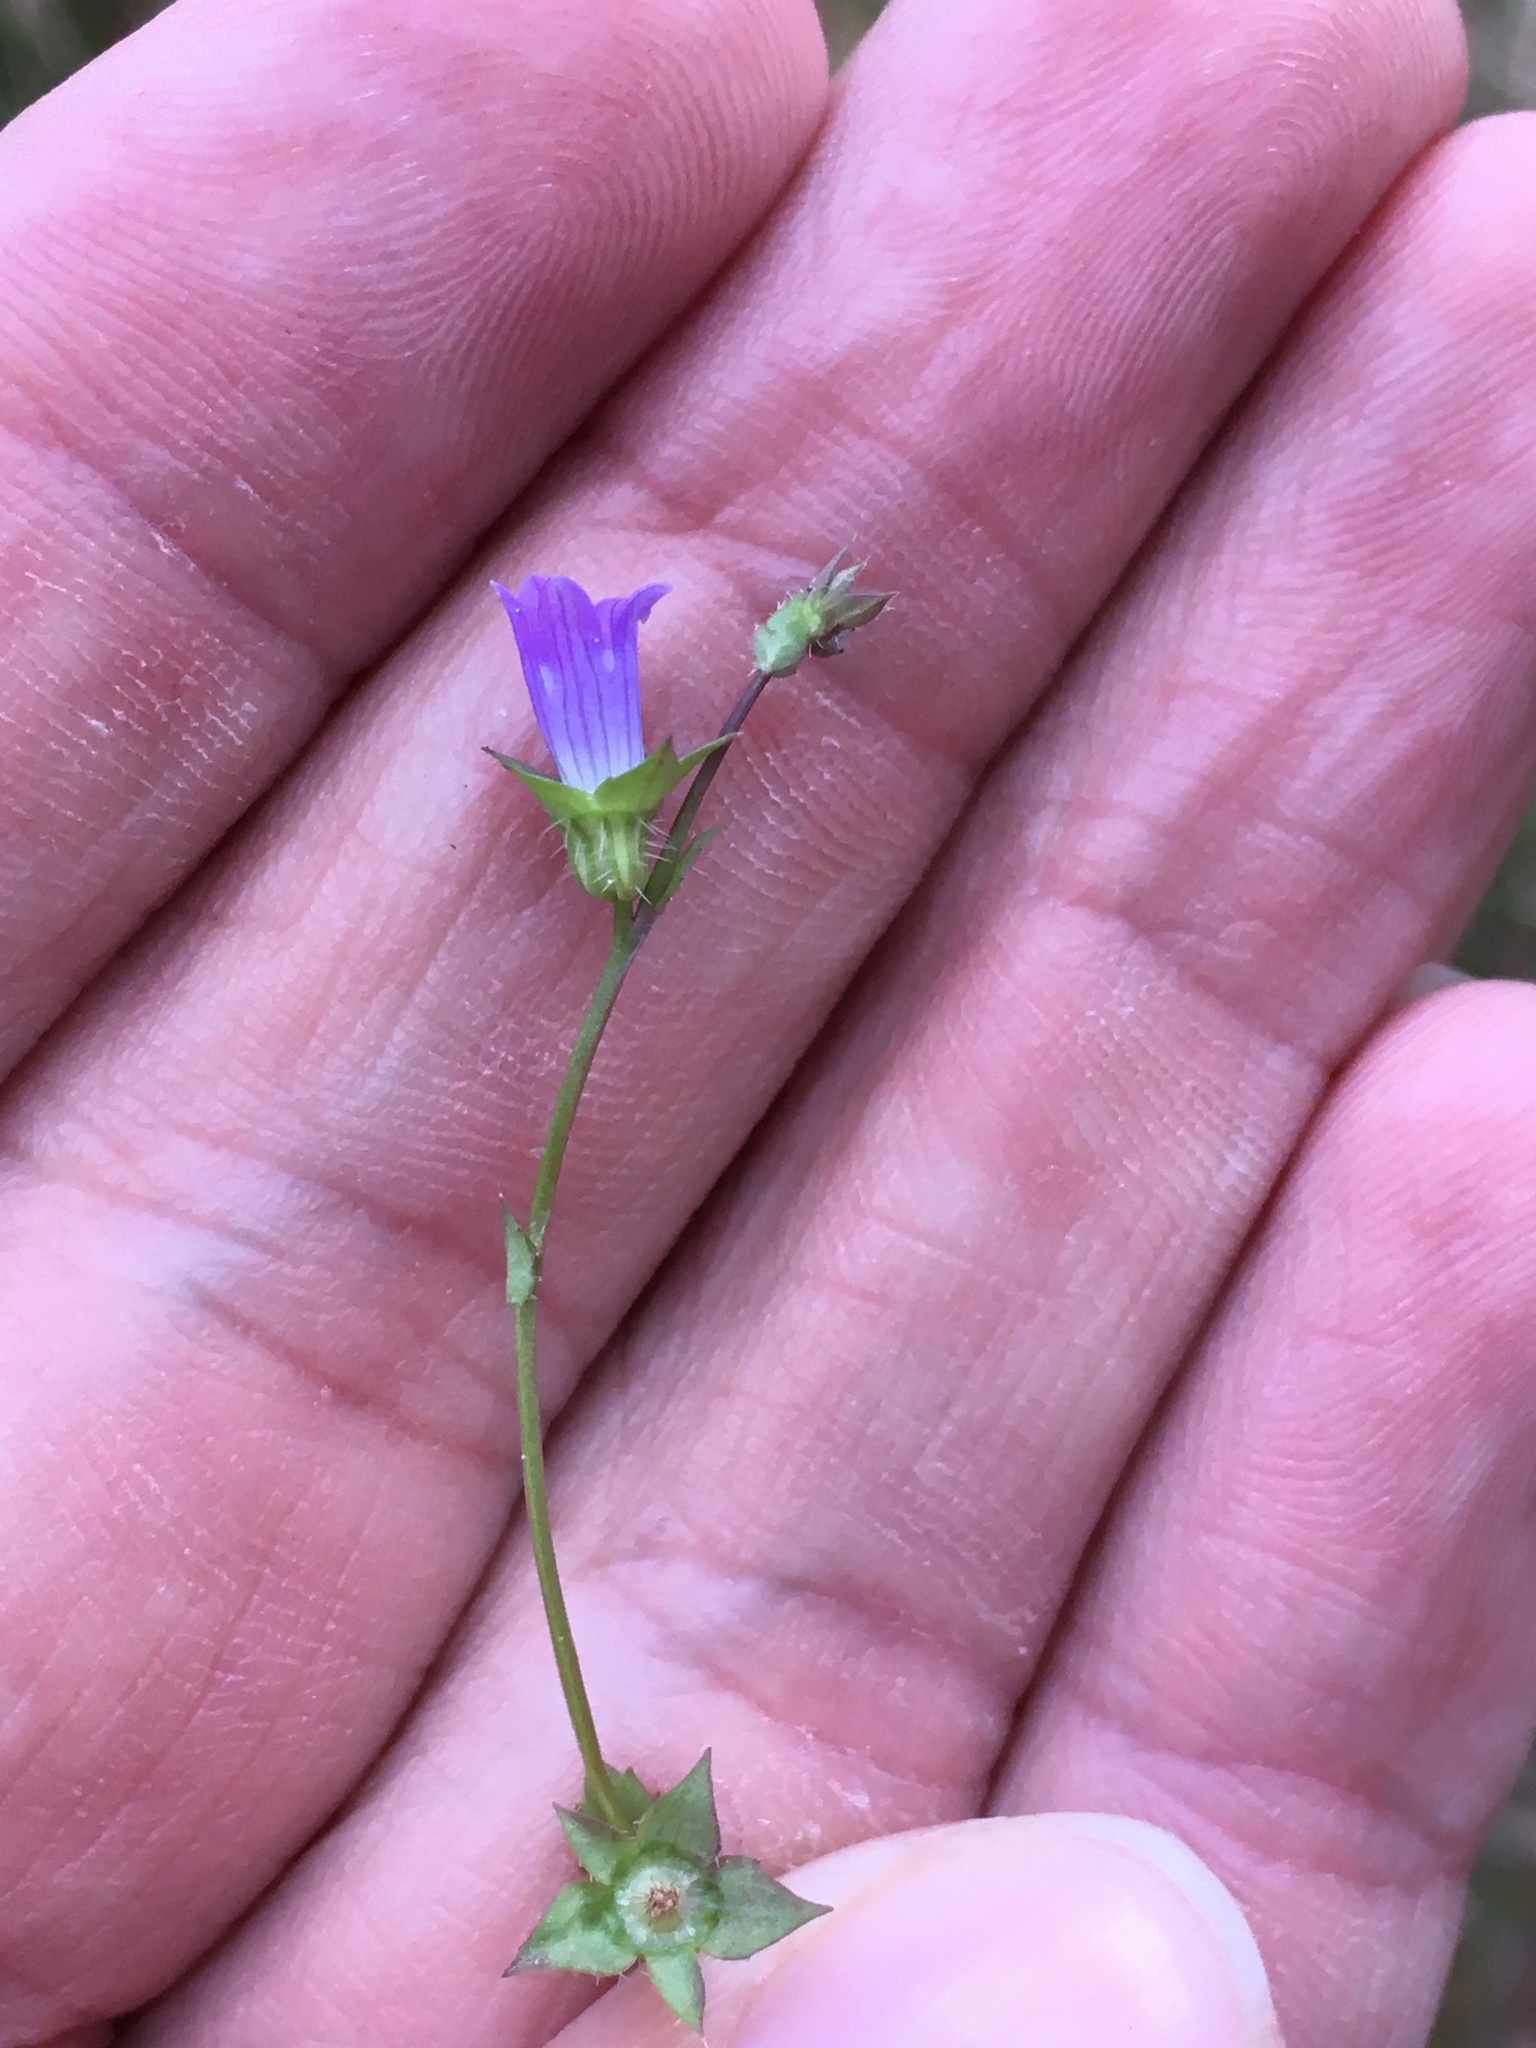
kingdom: Plantae
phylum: Tracheophyta
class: Magnoliopsida
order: Asterales
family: Campanulaceae
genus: Heterocodon
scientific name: Heterocodon rariflorum
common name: Rareflower heterocodon
